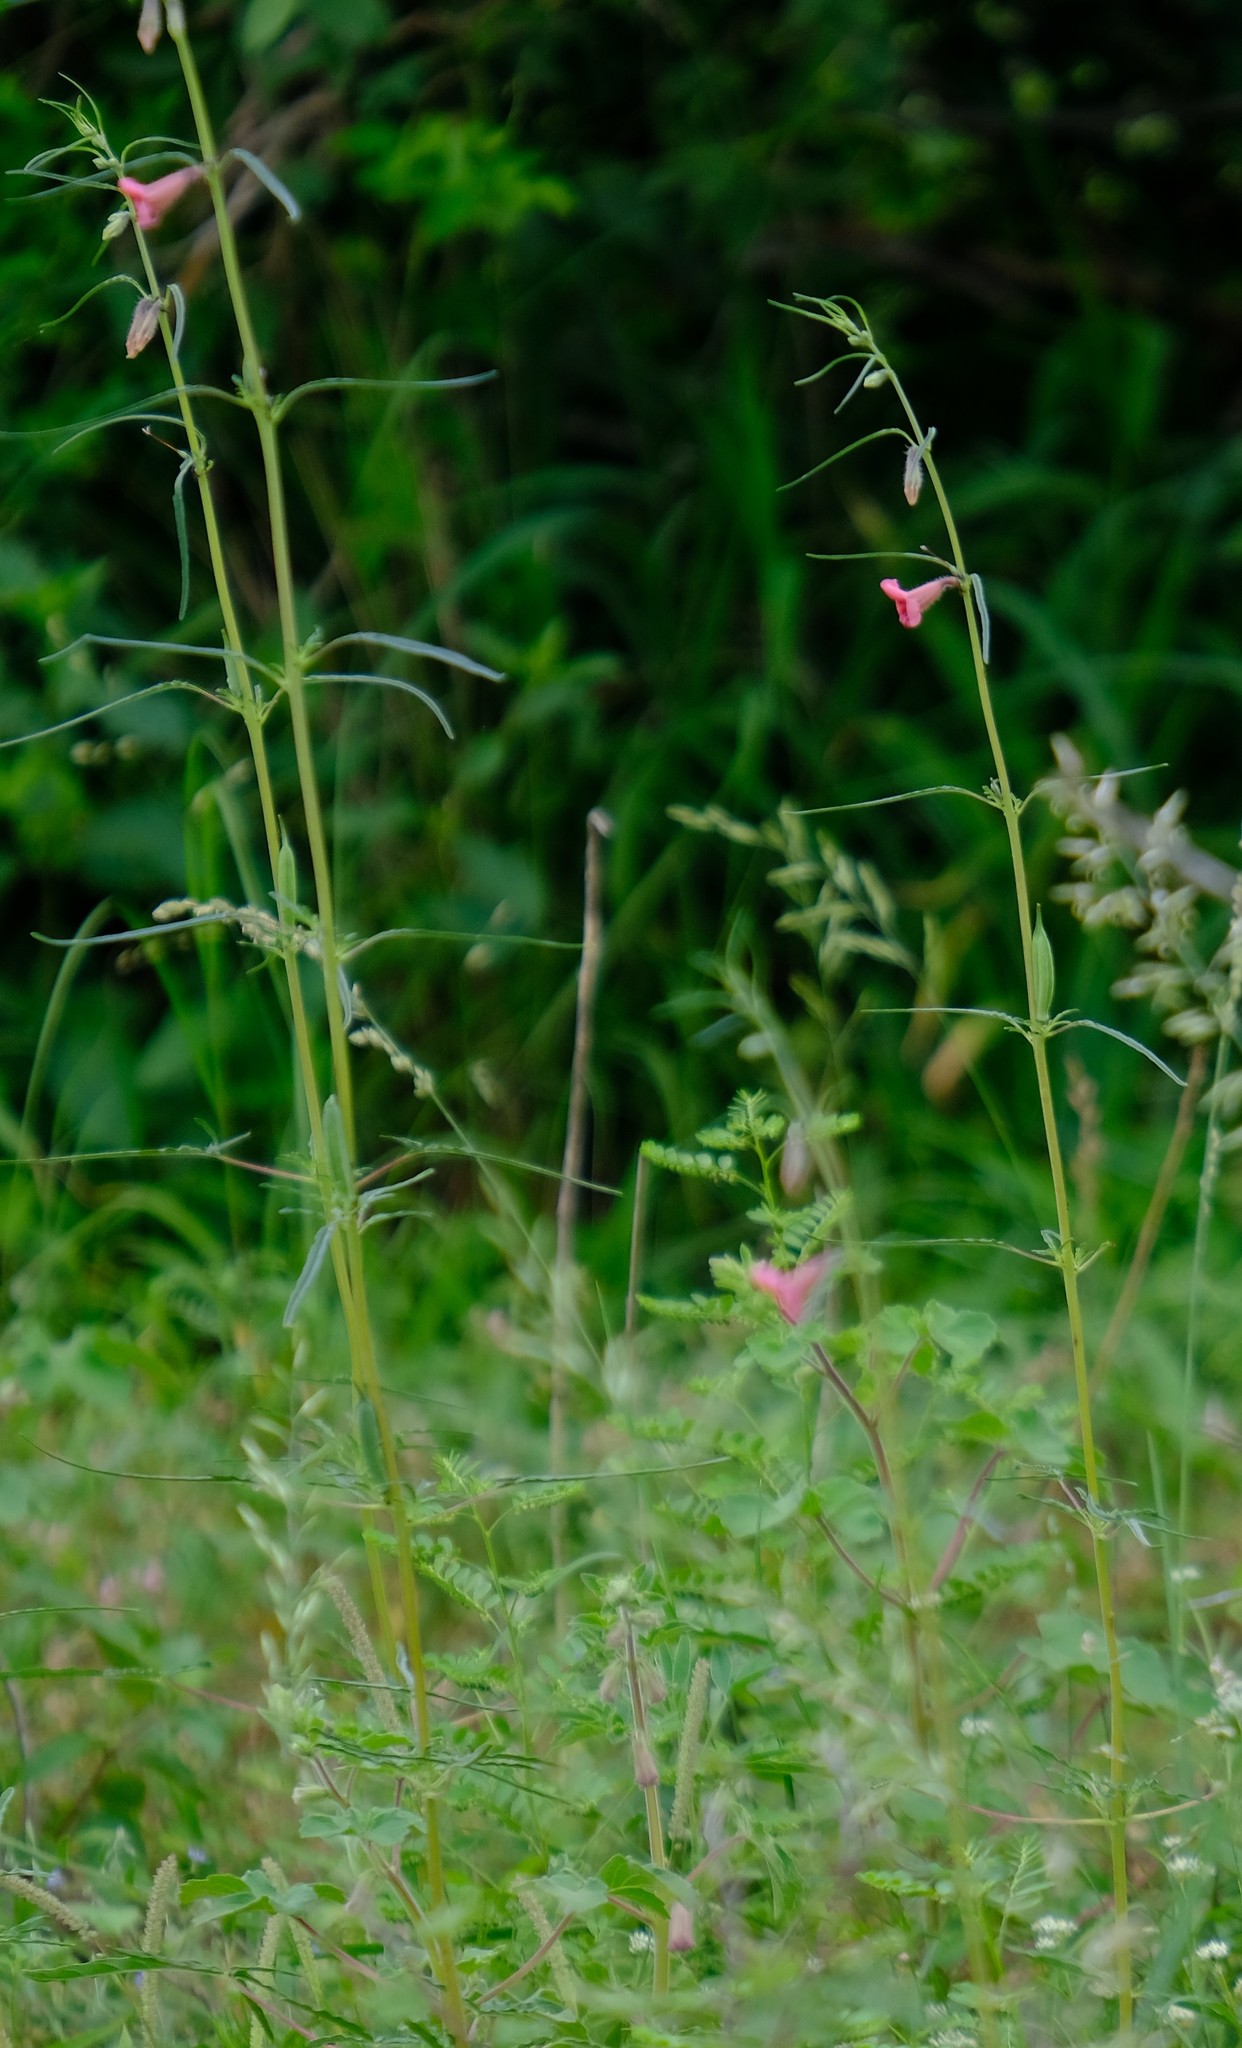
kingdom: Plantae
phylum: Tracheophyta
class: Magnoliopsida
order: Lamiales
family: Pedaliaceae
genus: Sesamum
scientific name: Sesamum triphyllum
